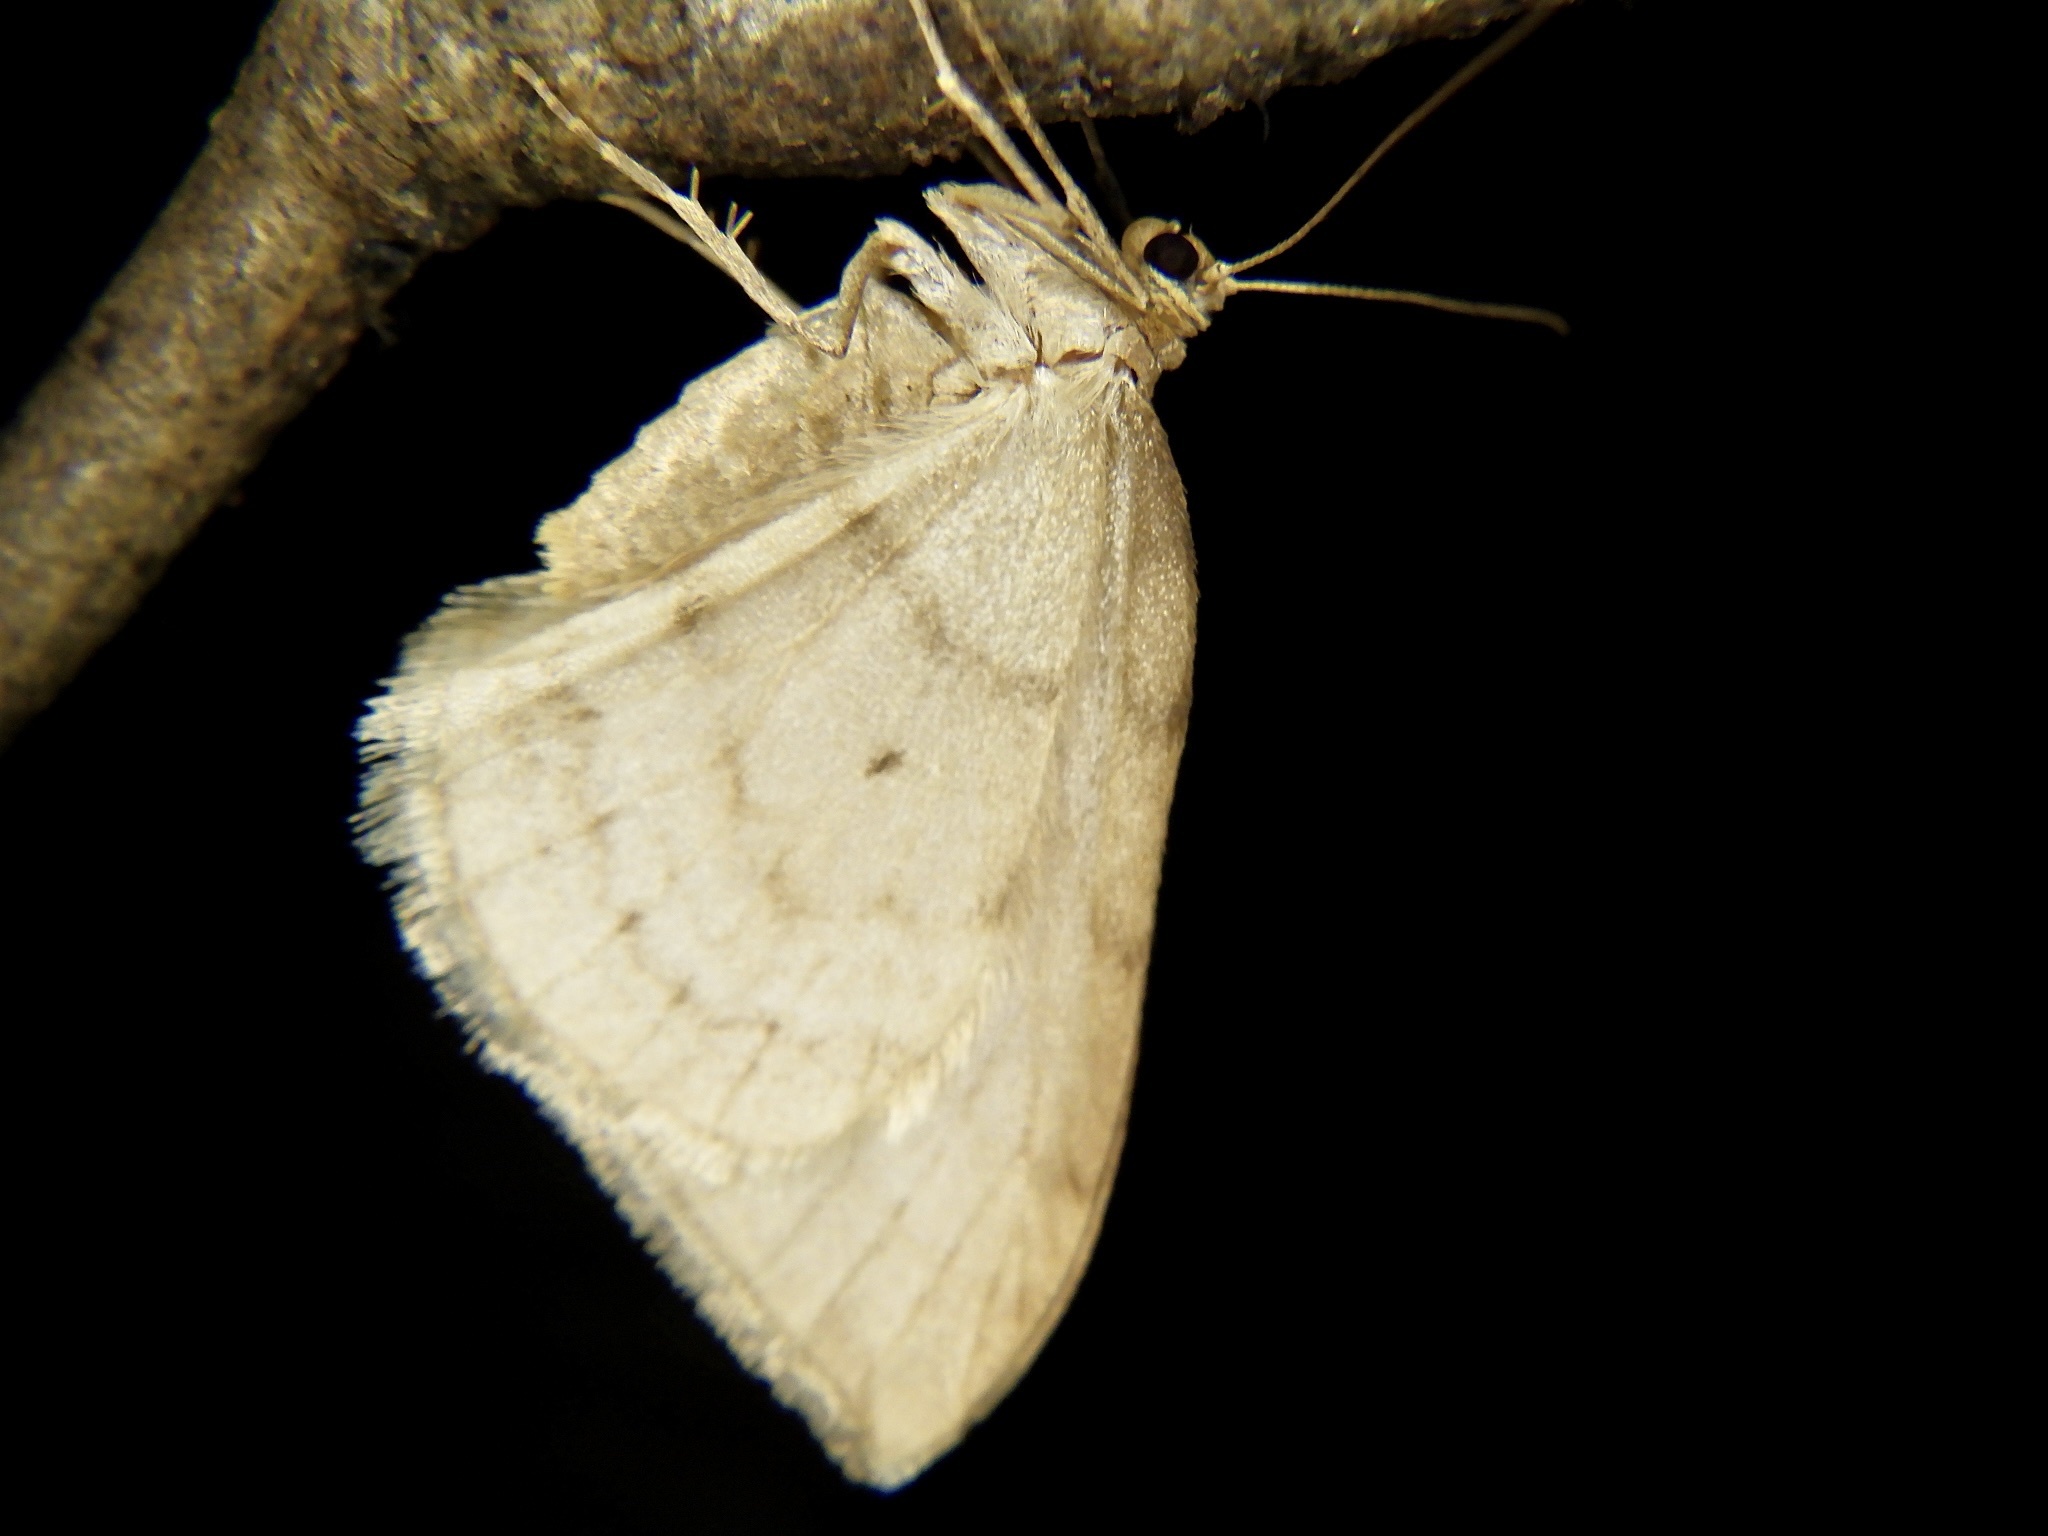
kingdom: Animalia
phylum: Arthropoda
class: Insecta
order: Lepidoptera
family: Geometridae
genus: Nothoporinia
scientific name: Nothoporinia mediolineata
